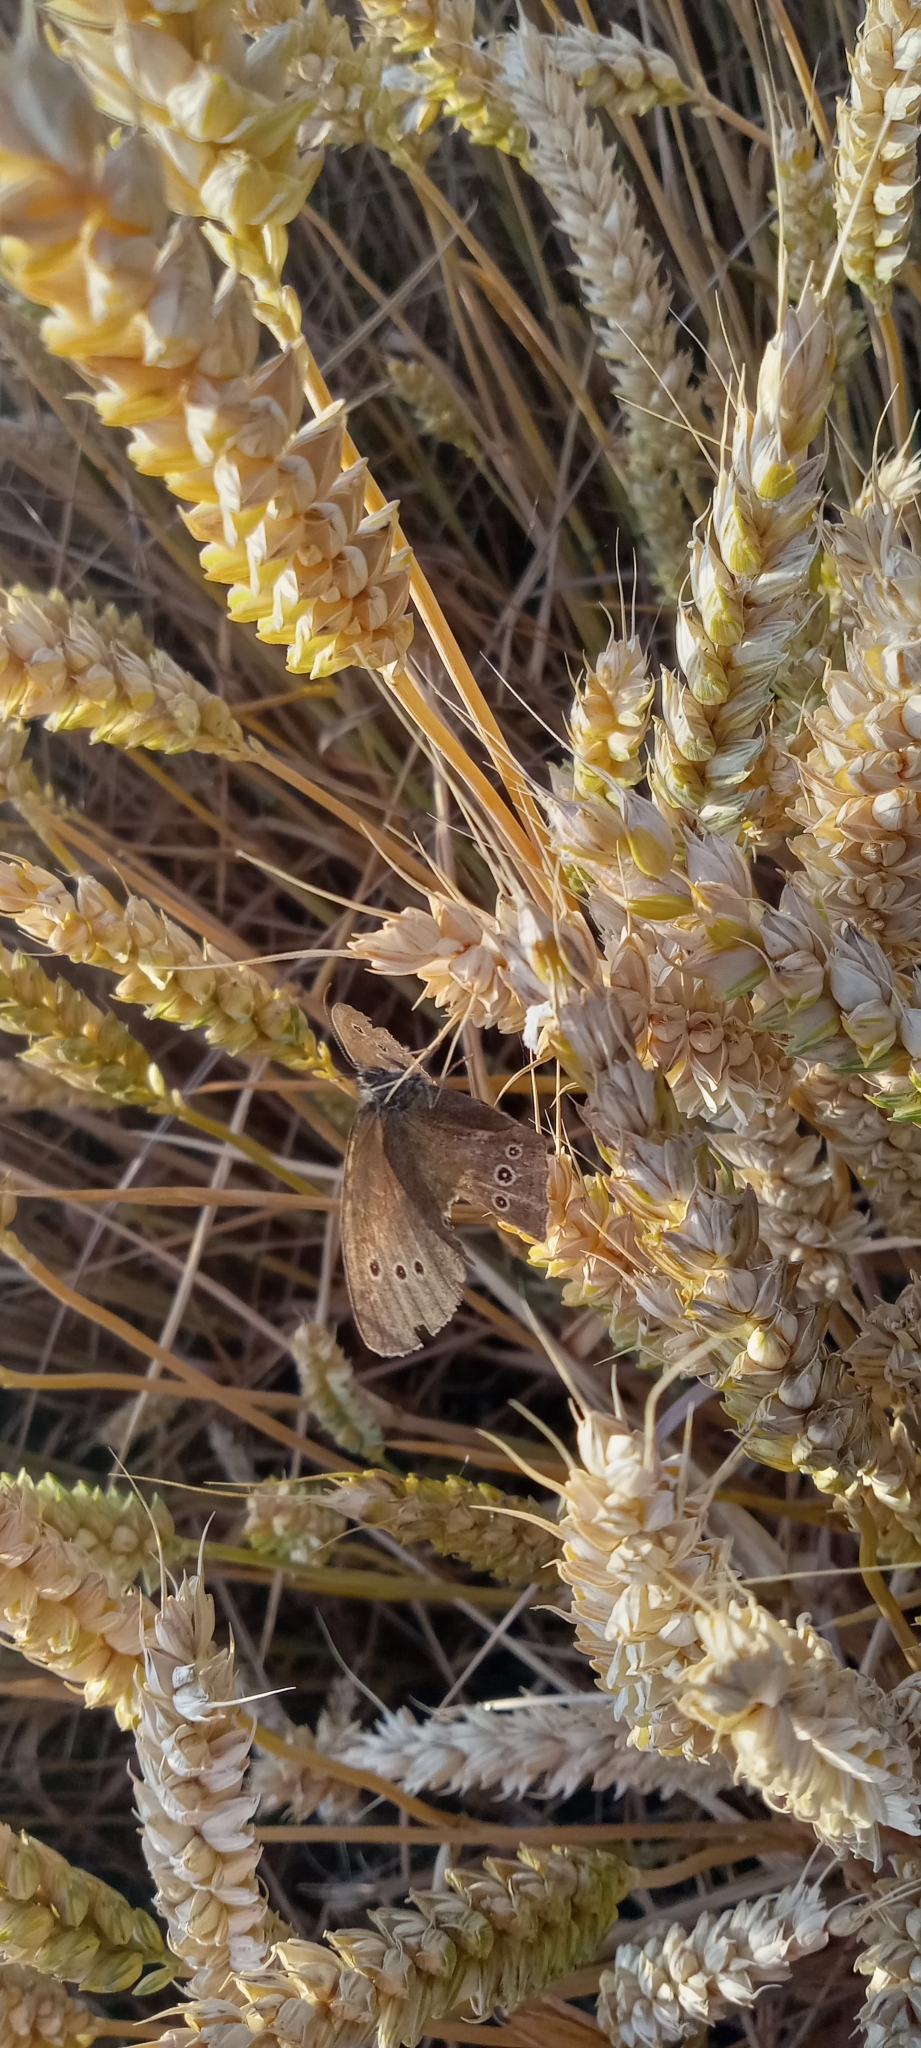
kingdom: Animalia
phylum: Arthropoda
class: Insecta
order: Lepidoptera
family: Nymphalidae
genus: Aphantopus
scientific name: Aphantopus hyperantus
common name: Ringlet
